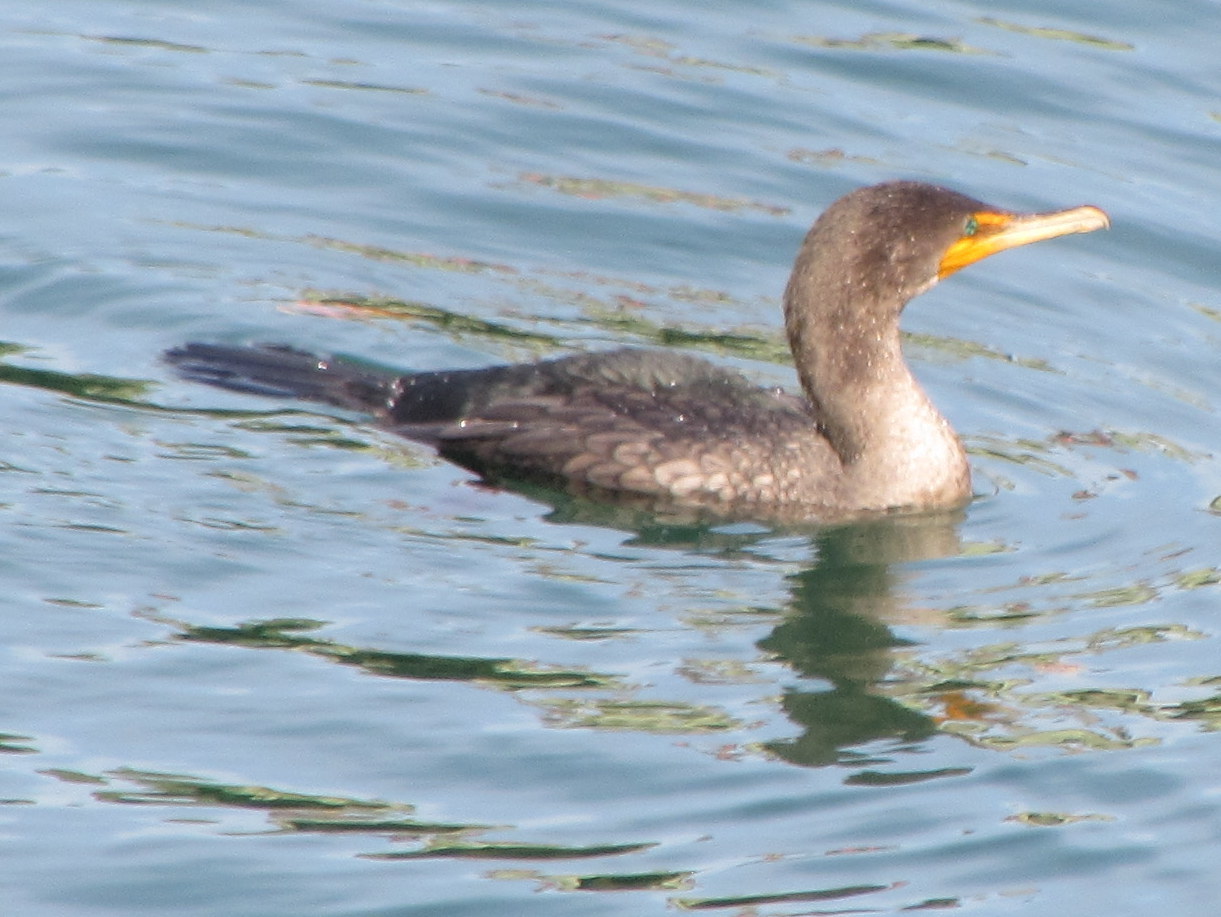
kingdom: Animalia
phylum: Chordata
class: Aves
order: Suliformes
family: Phalacrocoracidae
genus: Phalacrocorax
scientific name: Phalacrocorax auritus
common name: Double-crested cormorant
